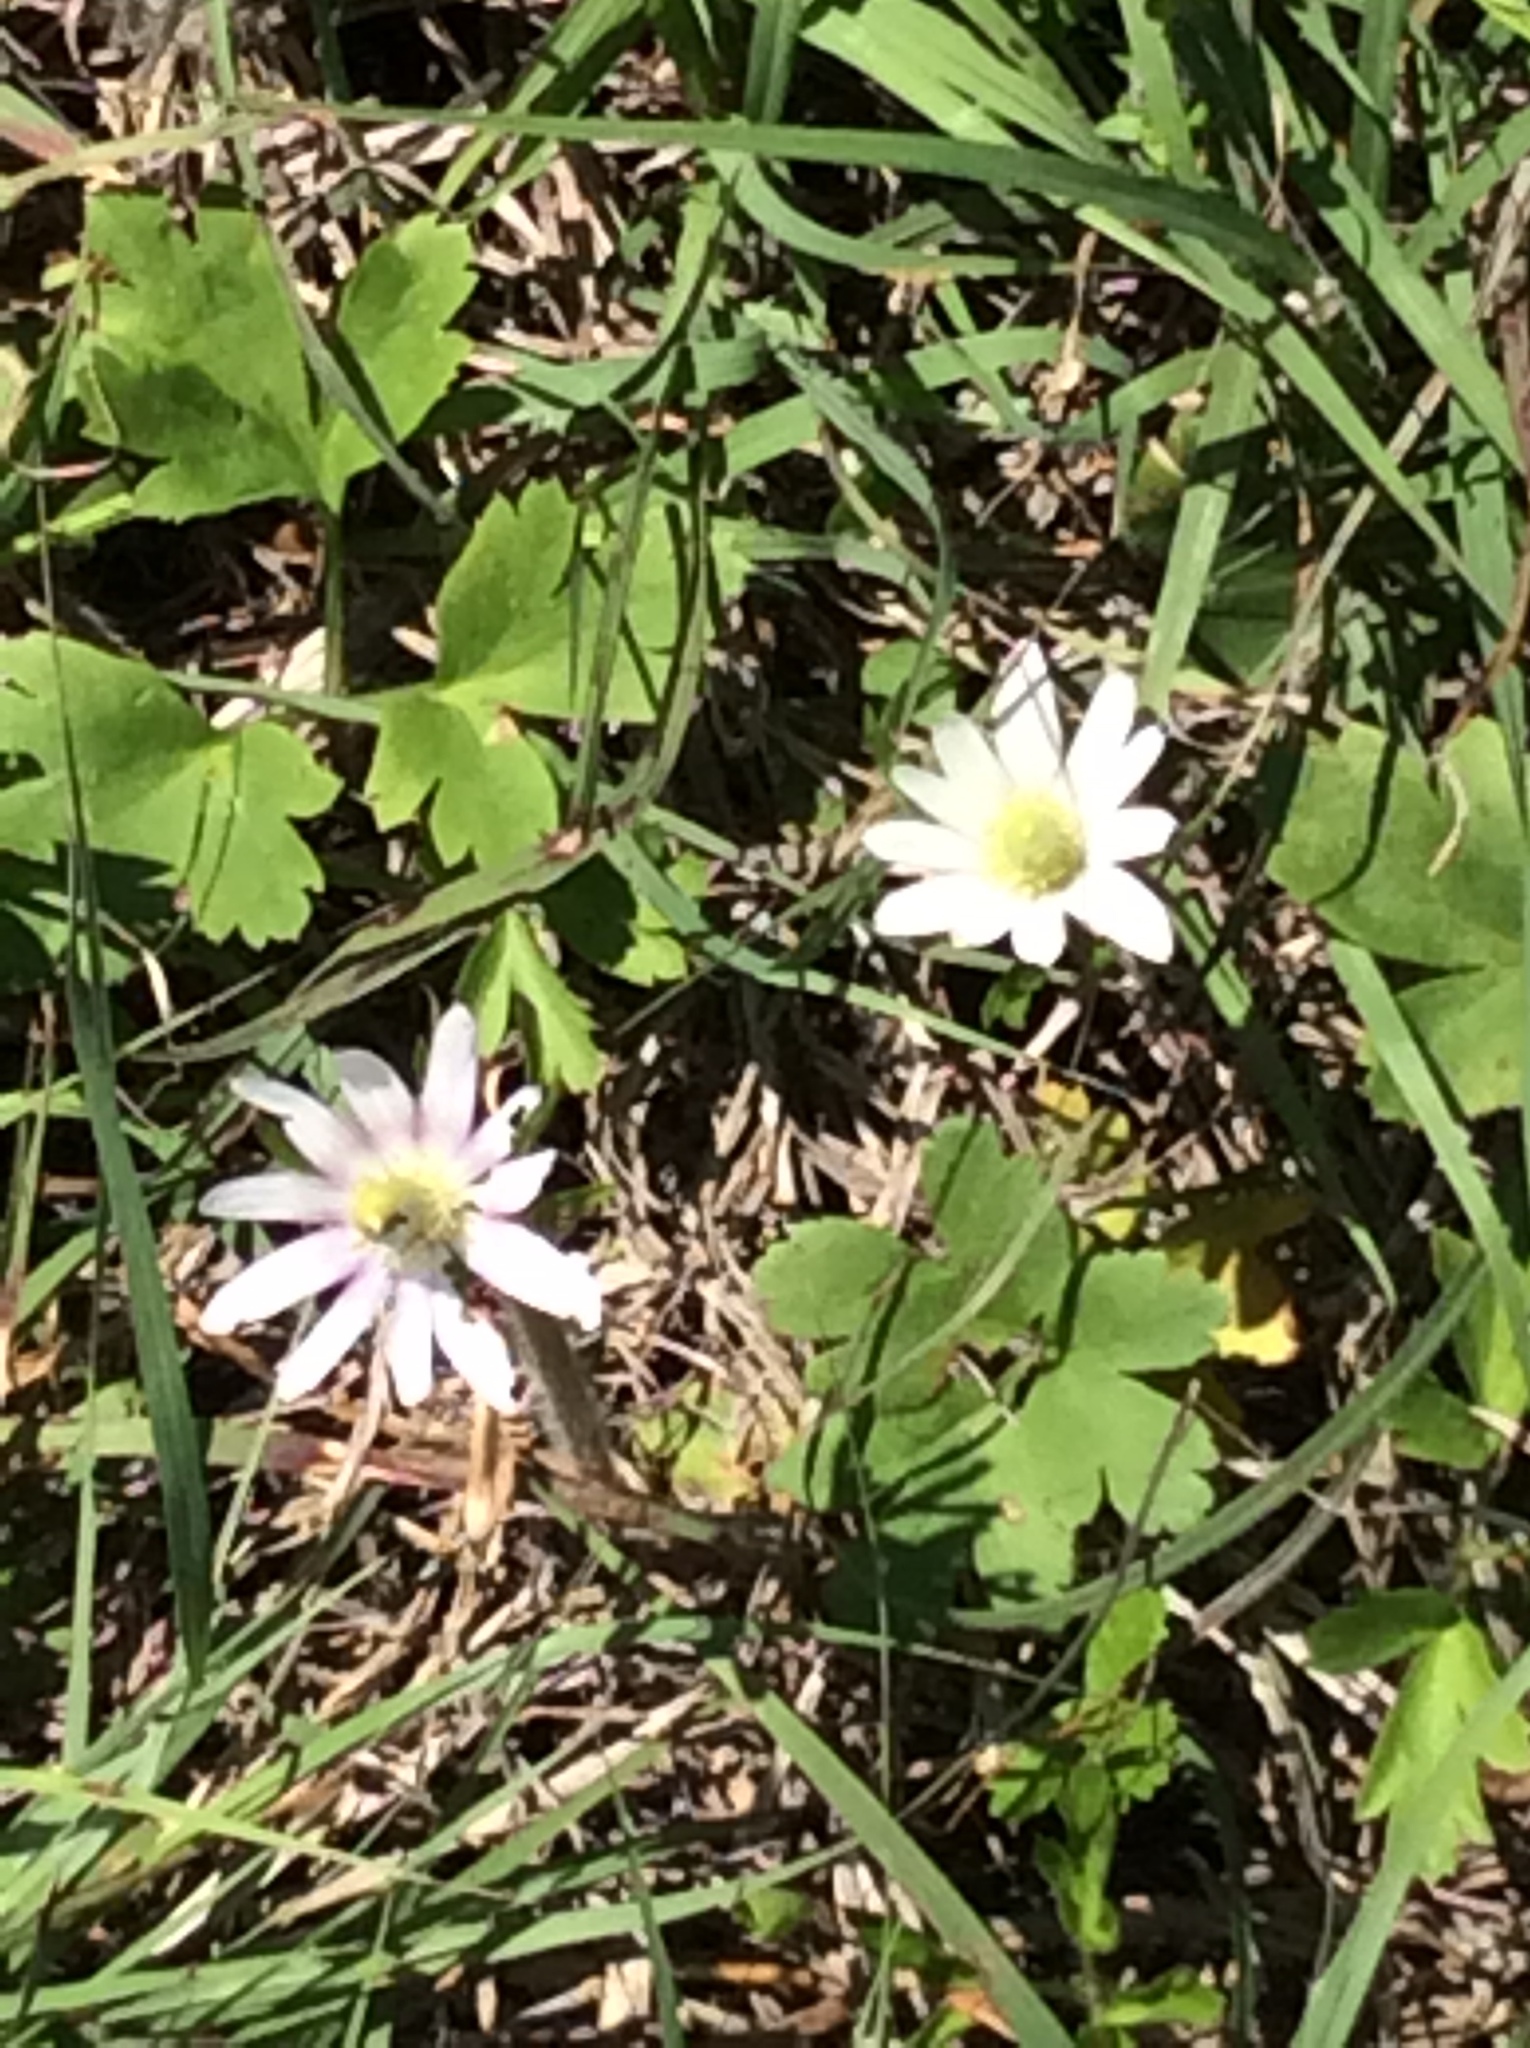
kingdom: Plantae
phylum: Tracheophyta
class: Magnoliopsida
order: Ranunculales
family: Ranunculaceae
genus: Anemone
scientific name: Anemone berlandieri
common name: Ten-petal anemone
